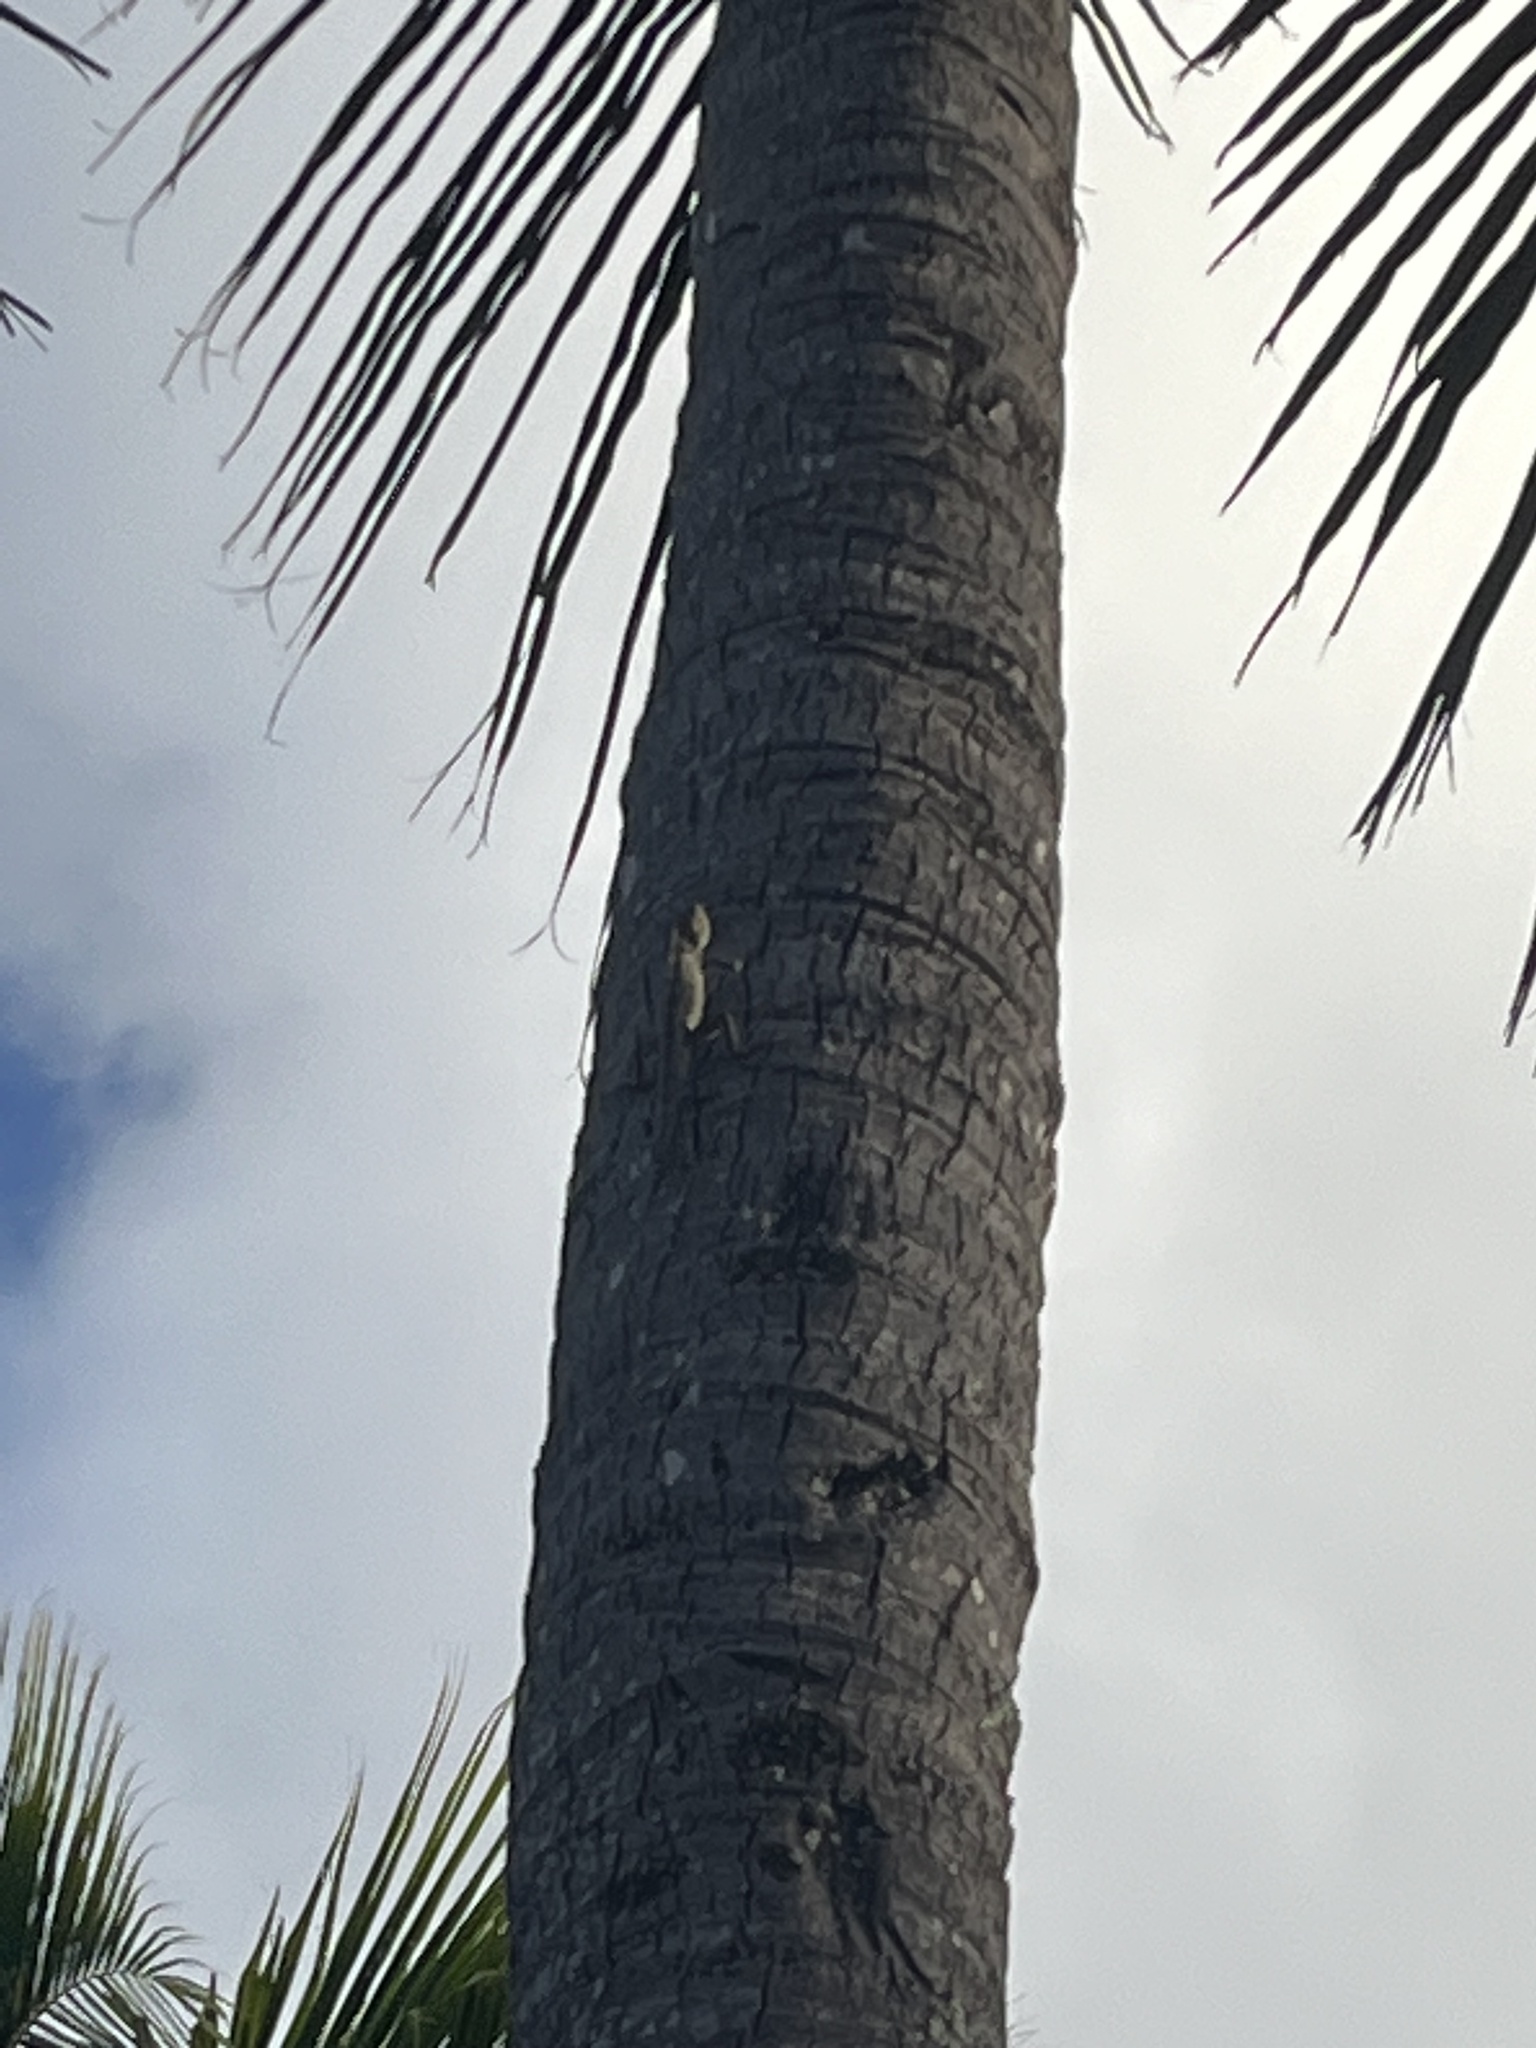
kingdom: Animalia
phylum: Chordata
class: Squamata
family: Agamidae
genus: Calotes
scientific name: Calotes versicolor
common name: Oriental garden lizard
